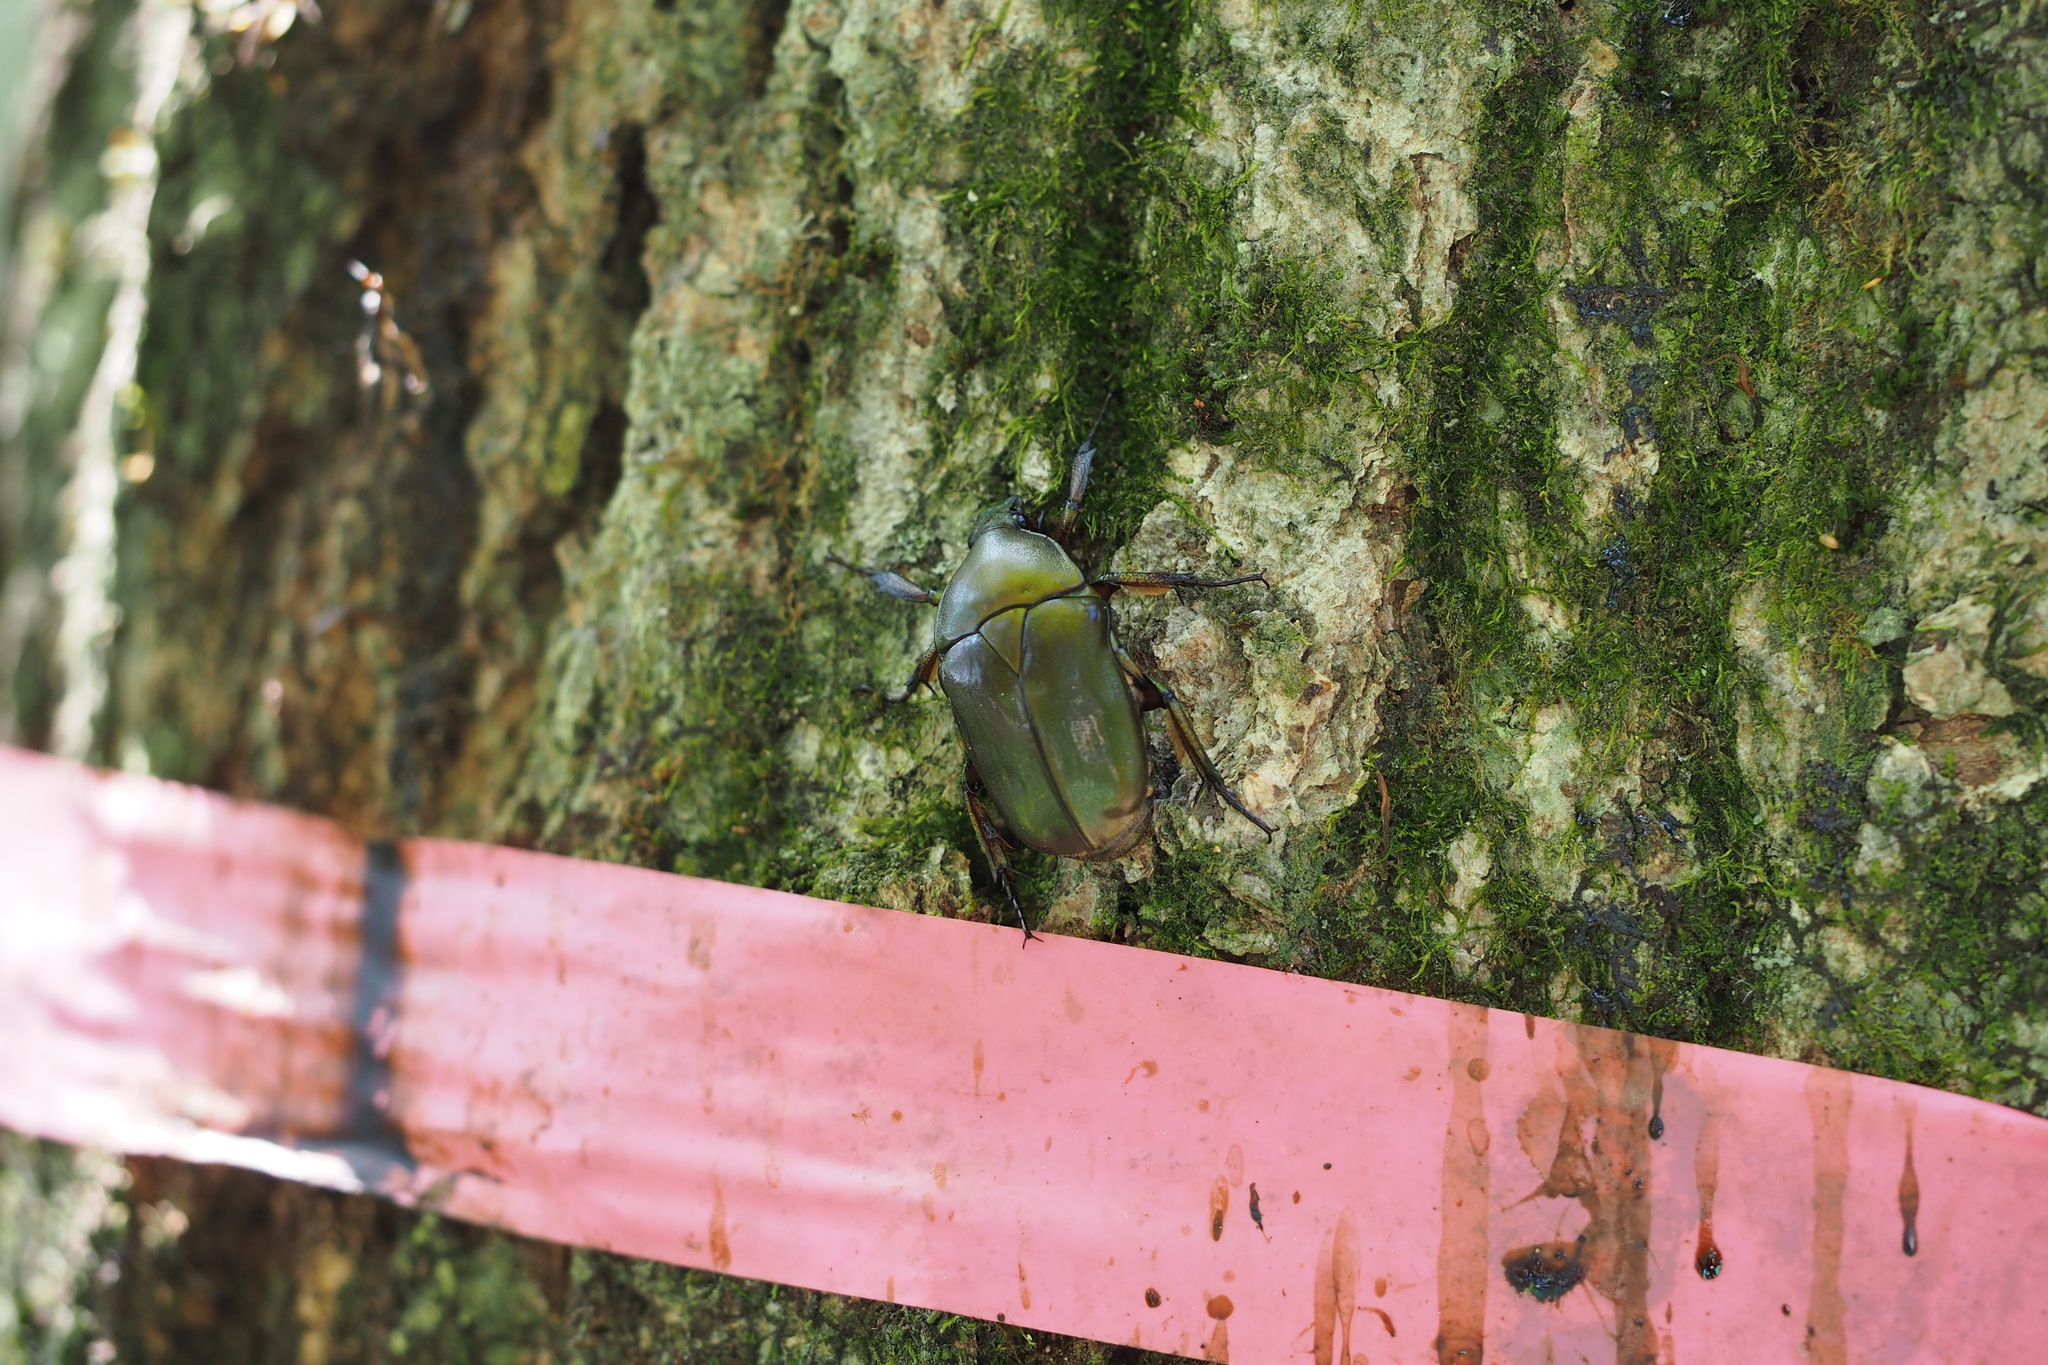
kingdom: Animalia
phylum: Arthropoda
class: Insecta
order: Coleoptera
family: Scarabaeidae
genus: Pseudotorynorrhina
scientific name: Pseudotorynorrhina japonica
